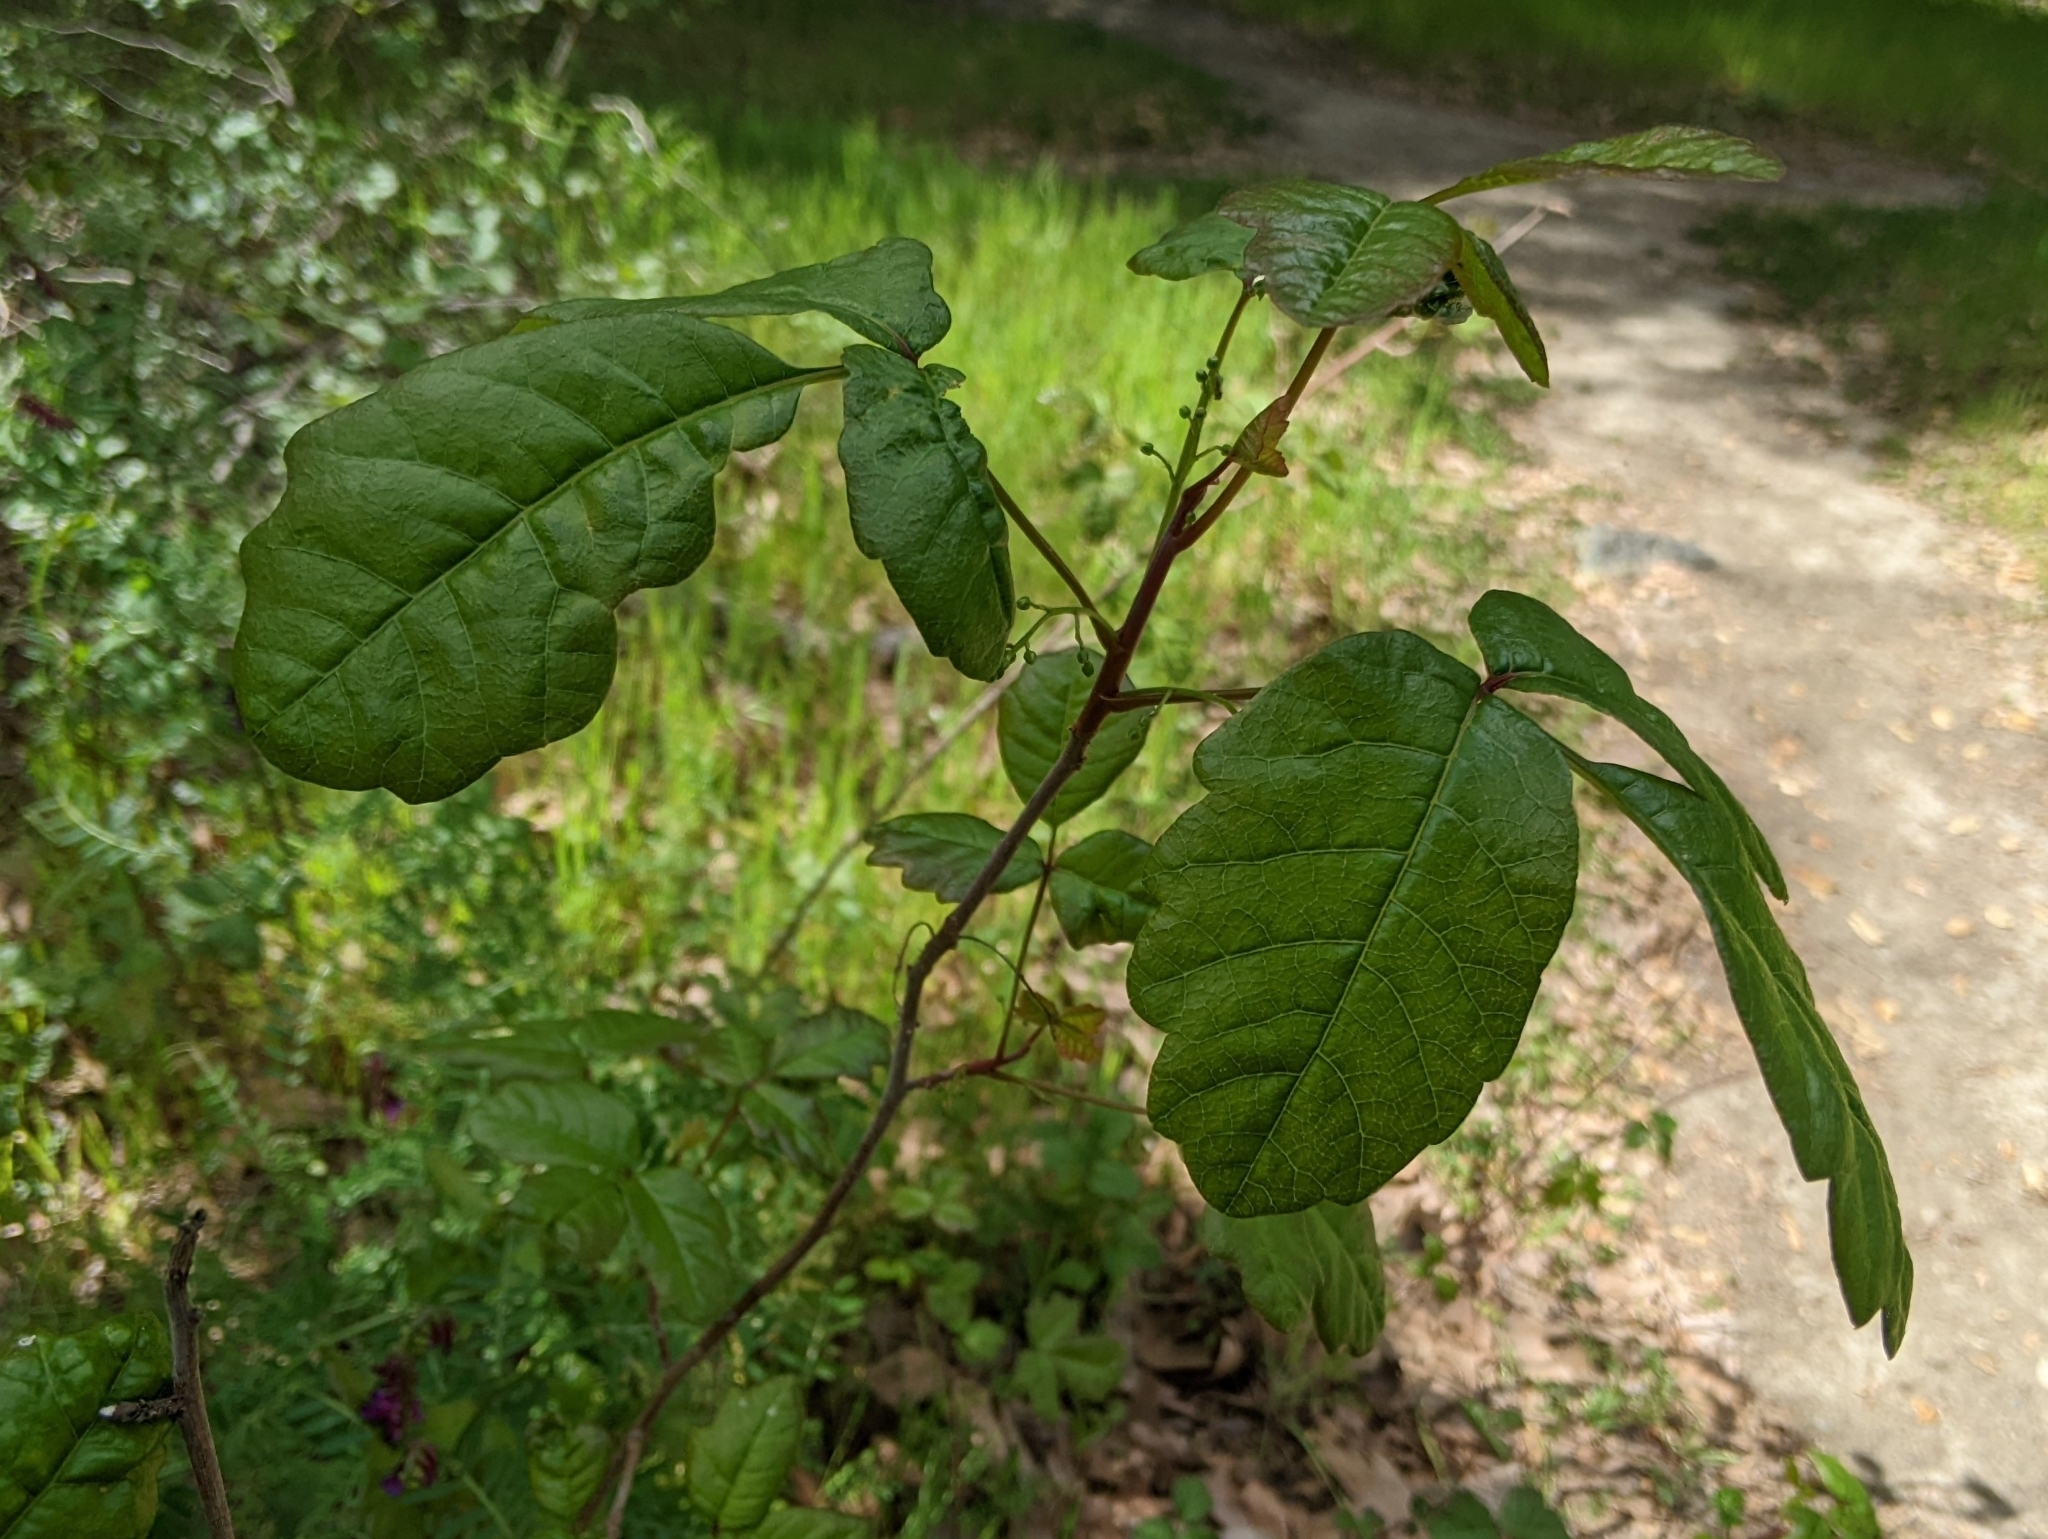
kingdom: Plantae
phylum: Tracheophyta
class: Magnoliopsida
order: Sapindales
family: Anacardiaceae
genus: Toxicodendron
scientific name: Toxicodendron diversilobum
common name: Pacific poison-oak
